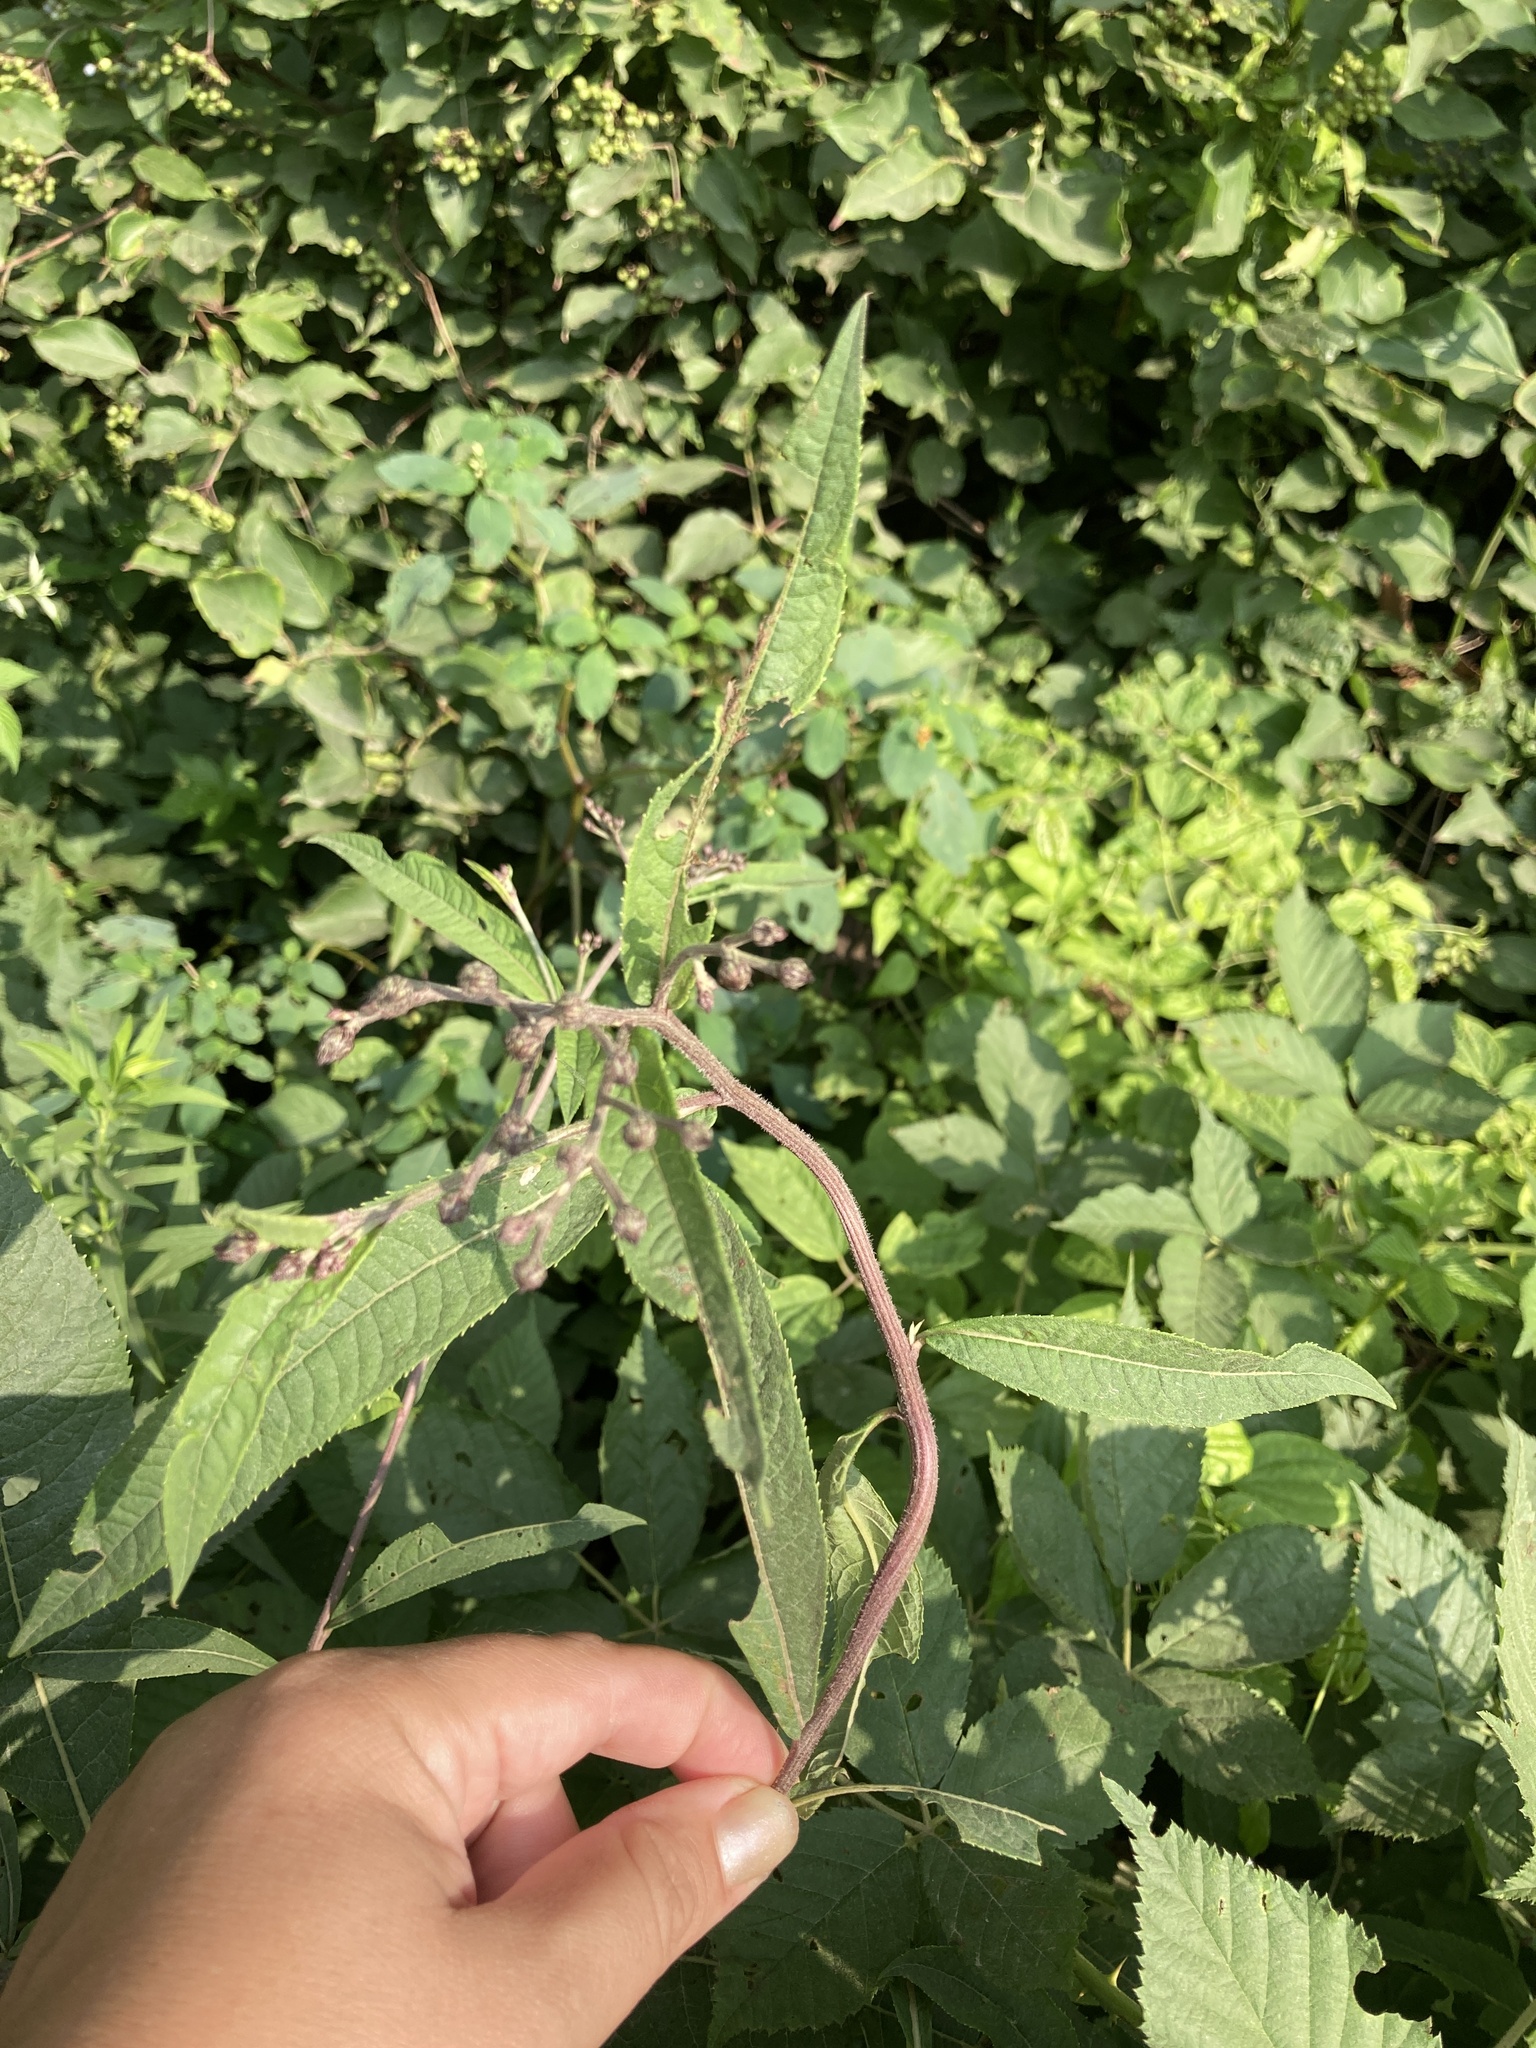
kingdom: Plantae
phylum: Tracheophyta
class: Magnoliopsida
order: Asterales
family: Asteraceae
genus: Vernonia
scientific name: Vernonia noveboracensis
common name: New york ironweed
